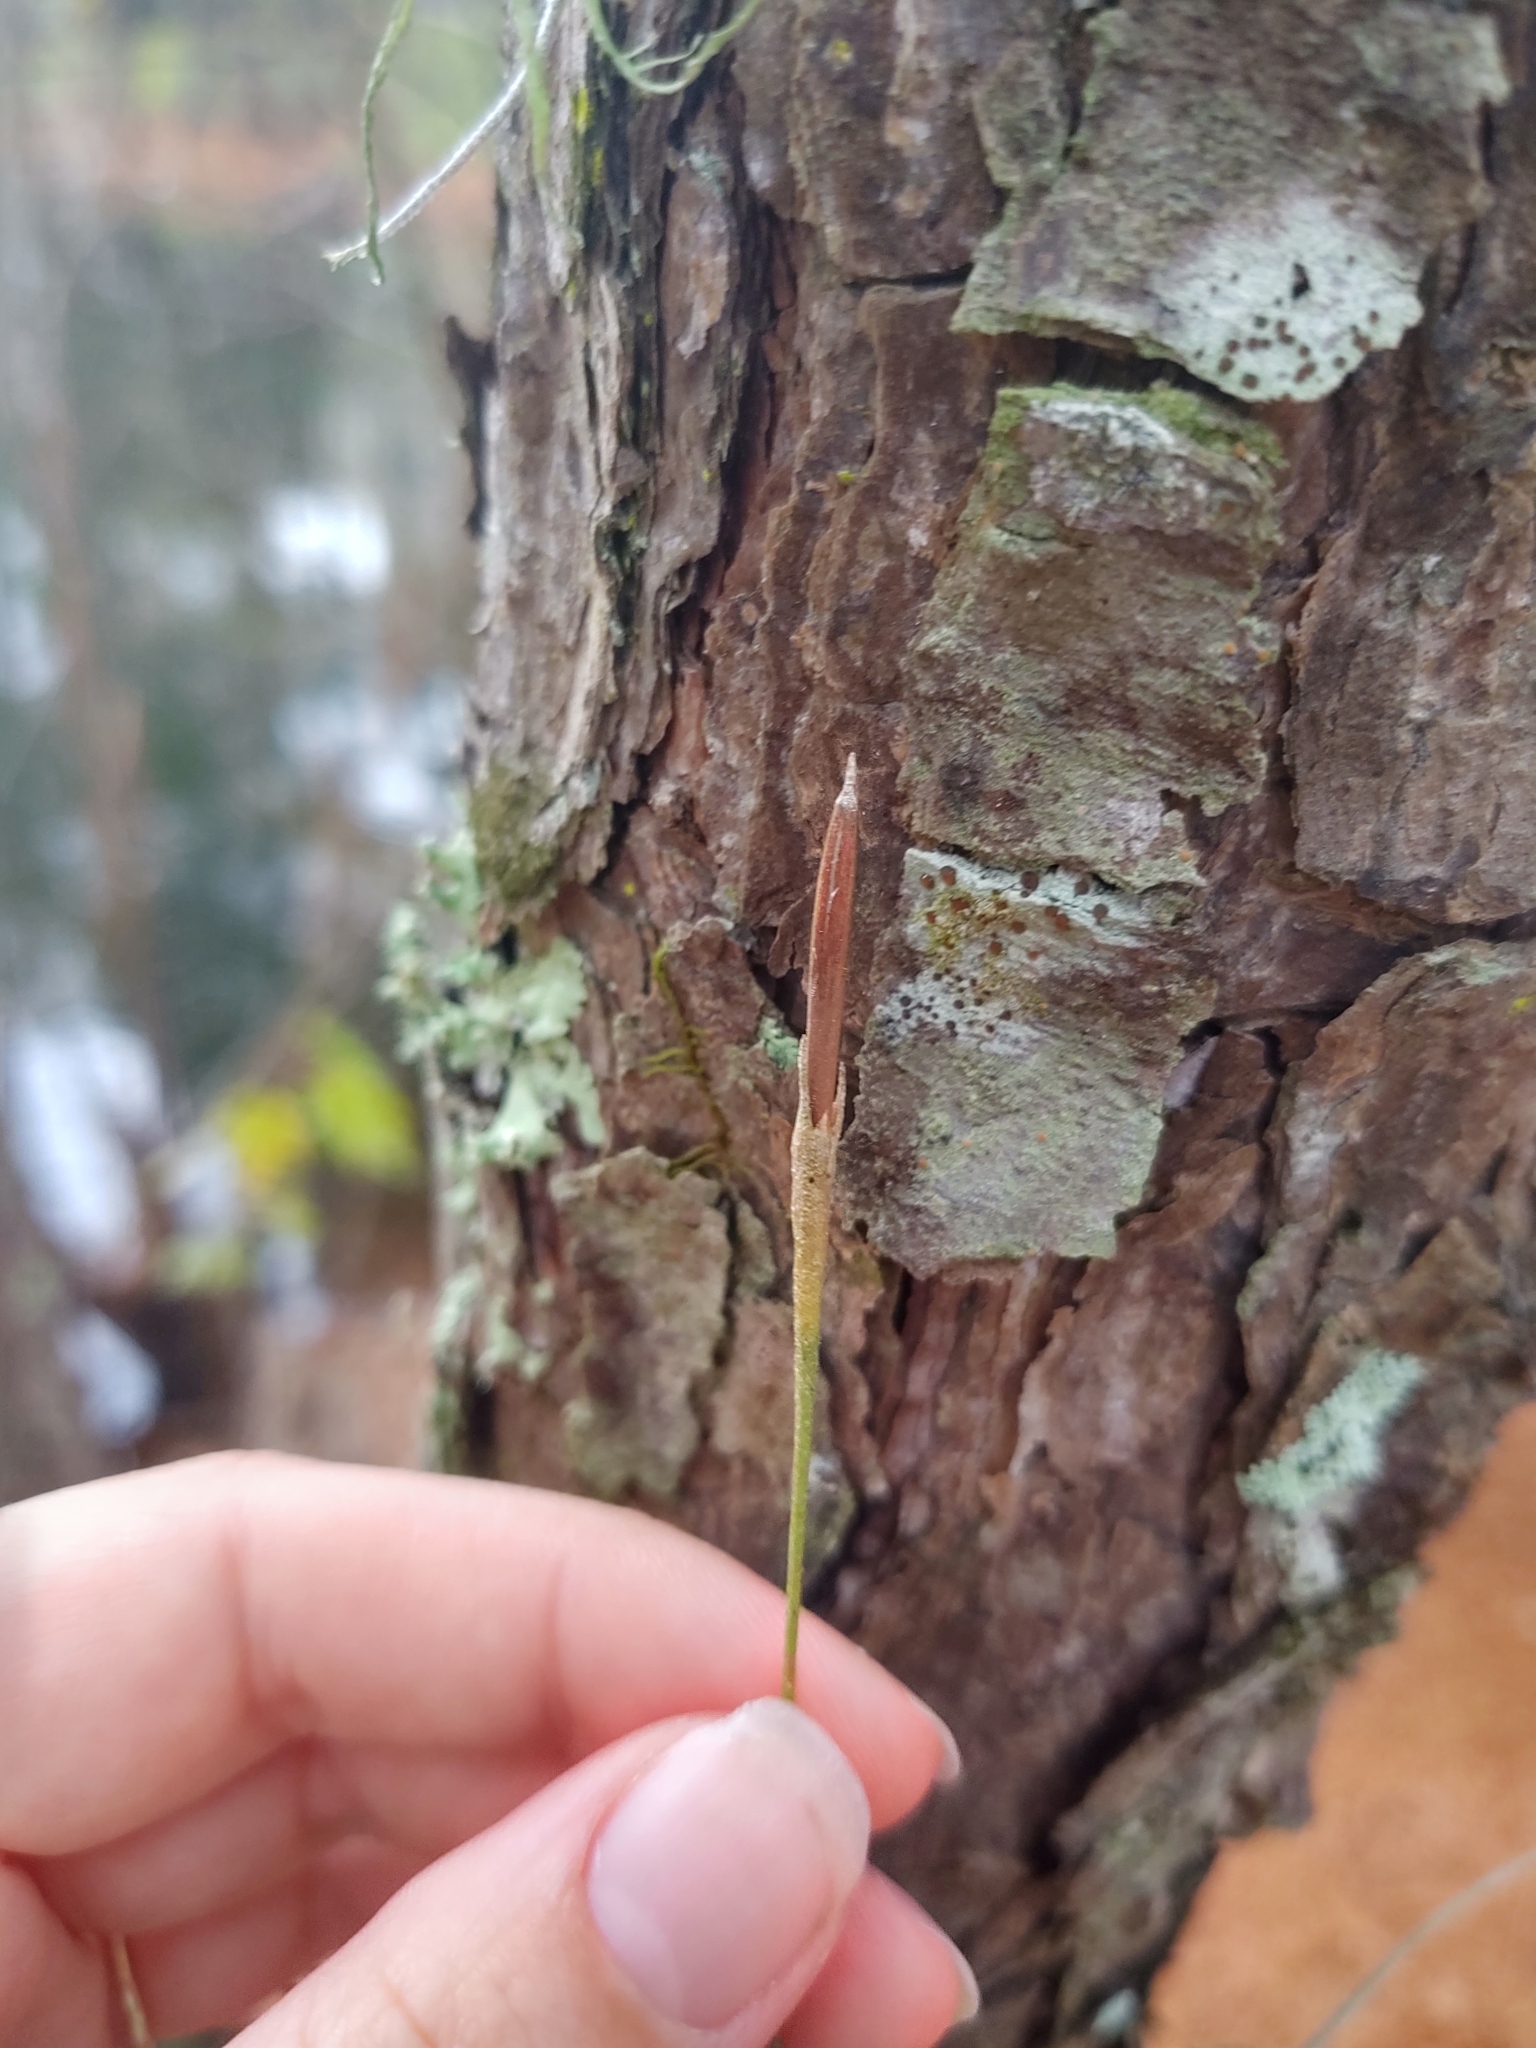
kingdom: Plantae
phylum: Tracheophyta
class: Liliopsida
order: Poales
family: Bromeliaceae
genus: Tillandsia
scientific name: Tillandsia recurvata
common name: Small ballmoss
